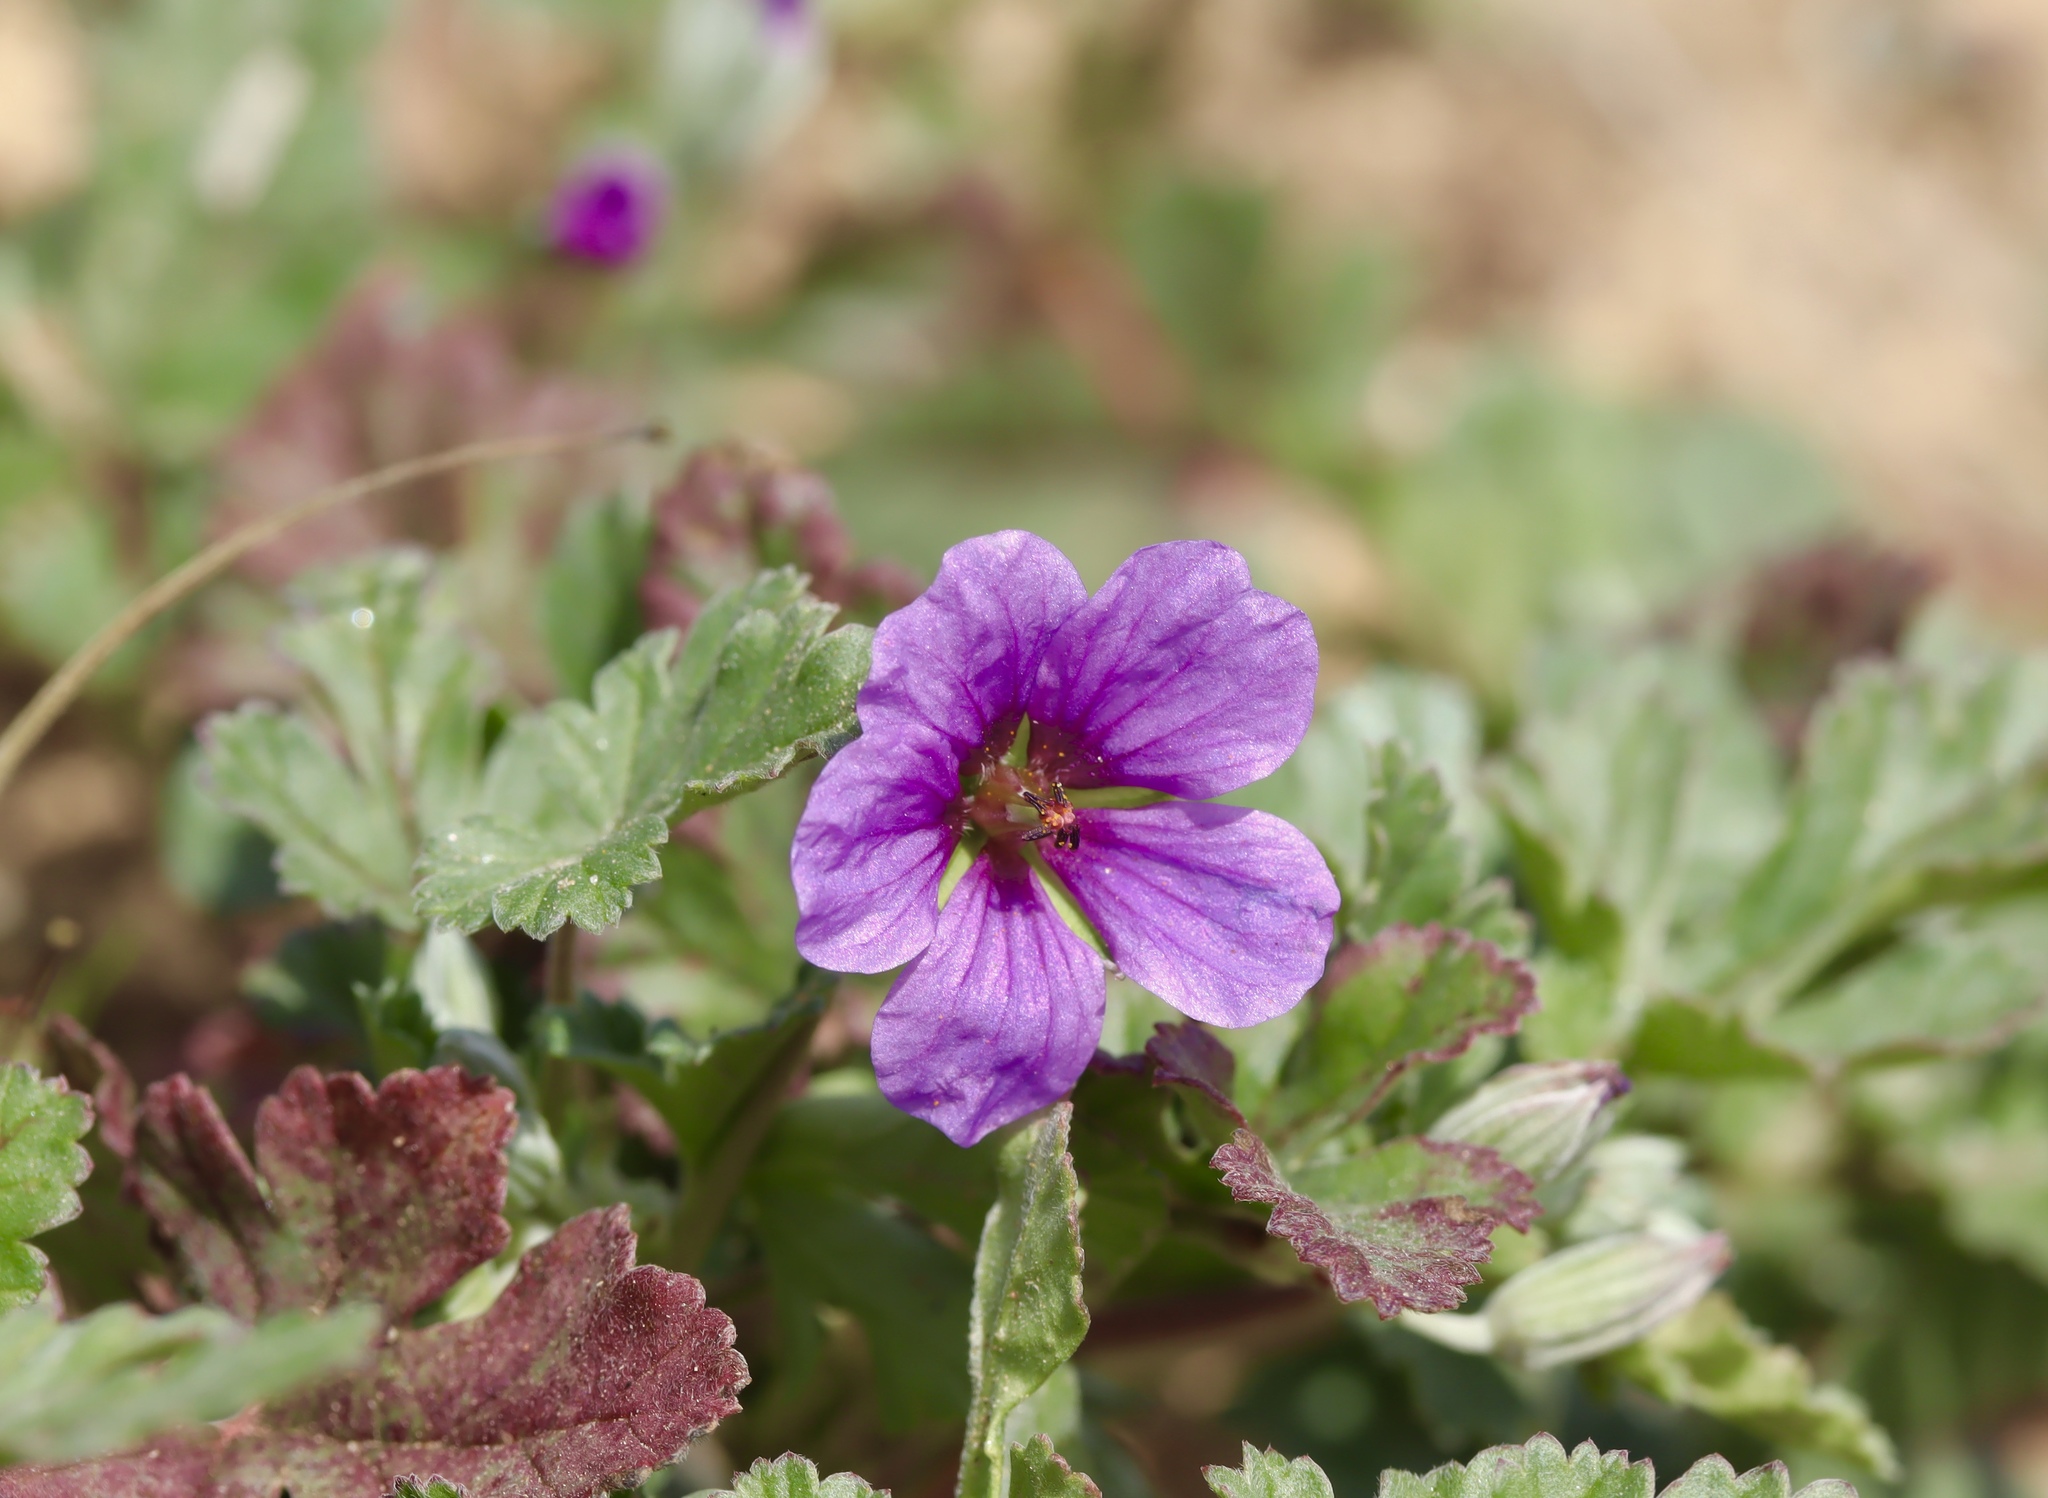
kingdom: Plantae
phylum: Tracheophyta
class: Magnoliopsida
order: Geraniales
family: Geraniaceae
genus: Erodium
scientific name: Erodium texanum
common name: Texas stork's-bill
